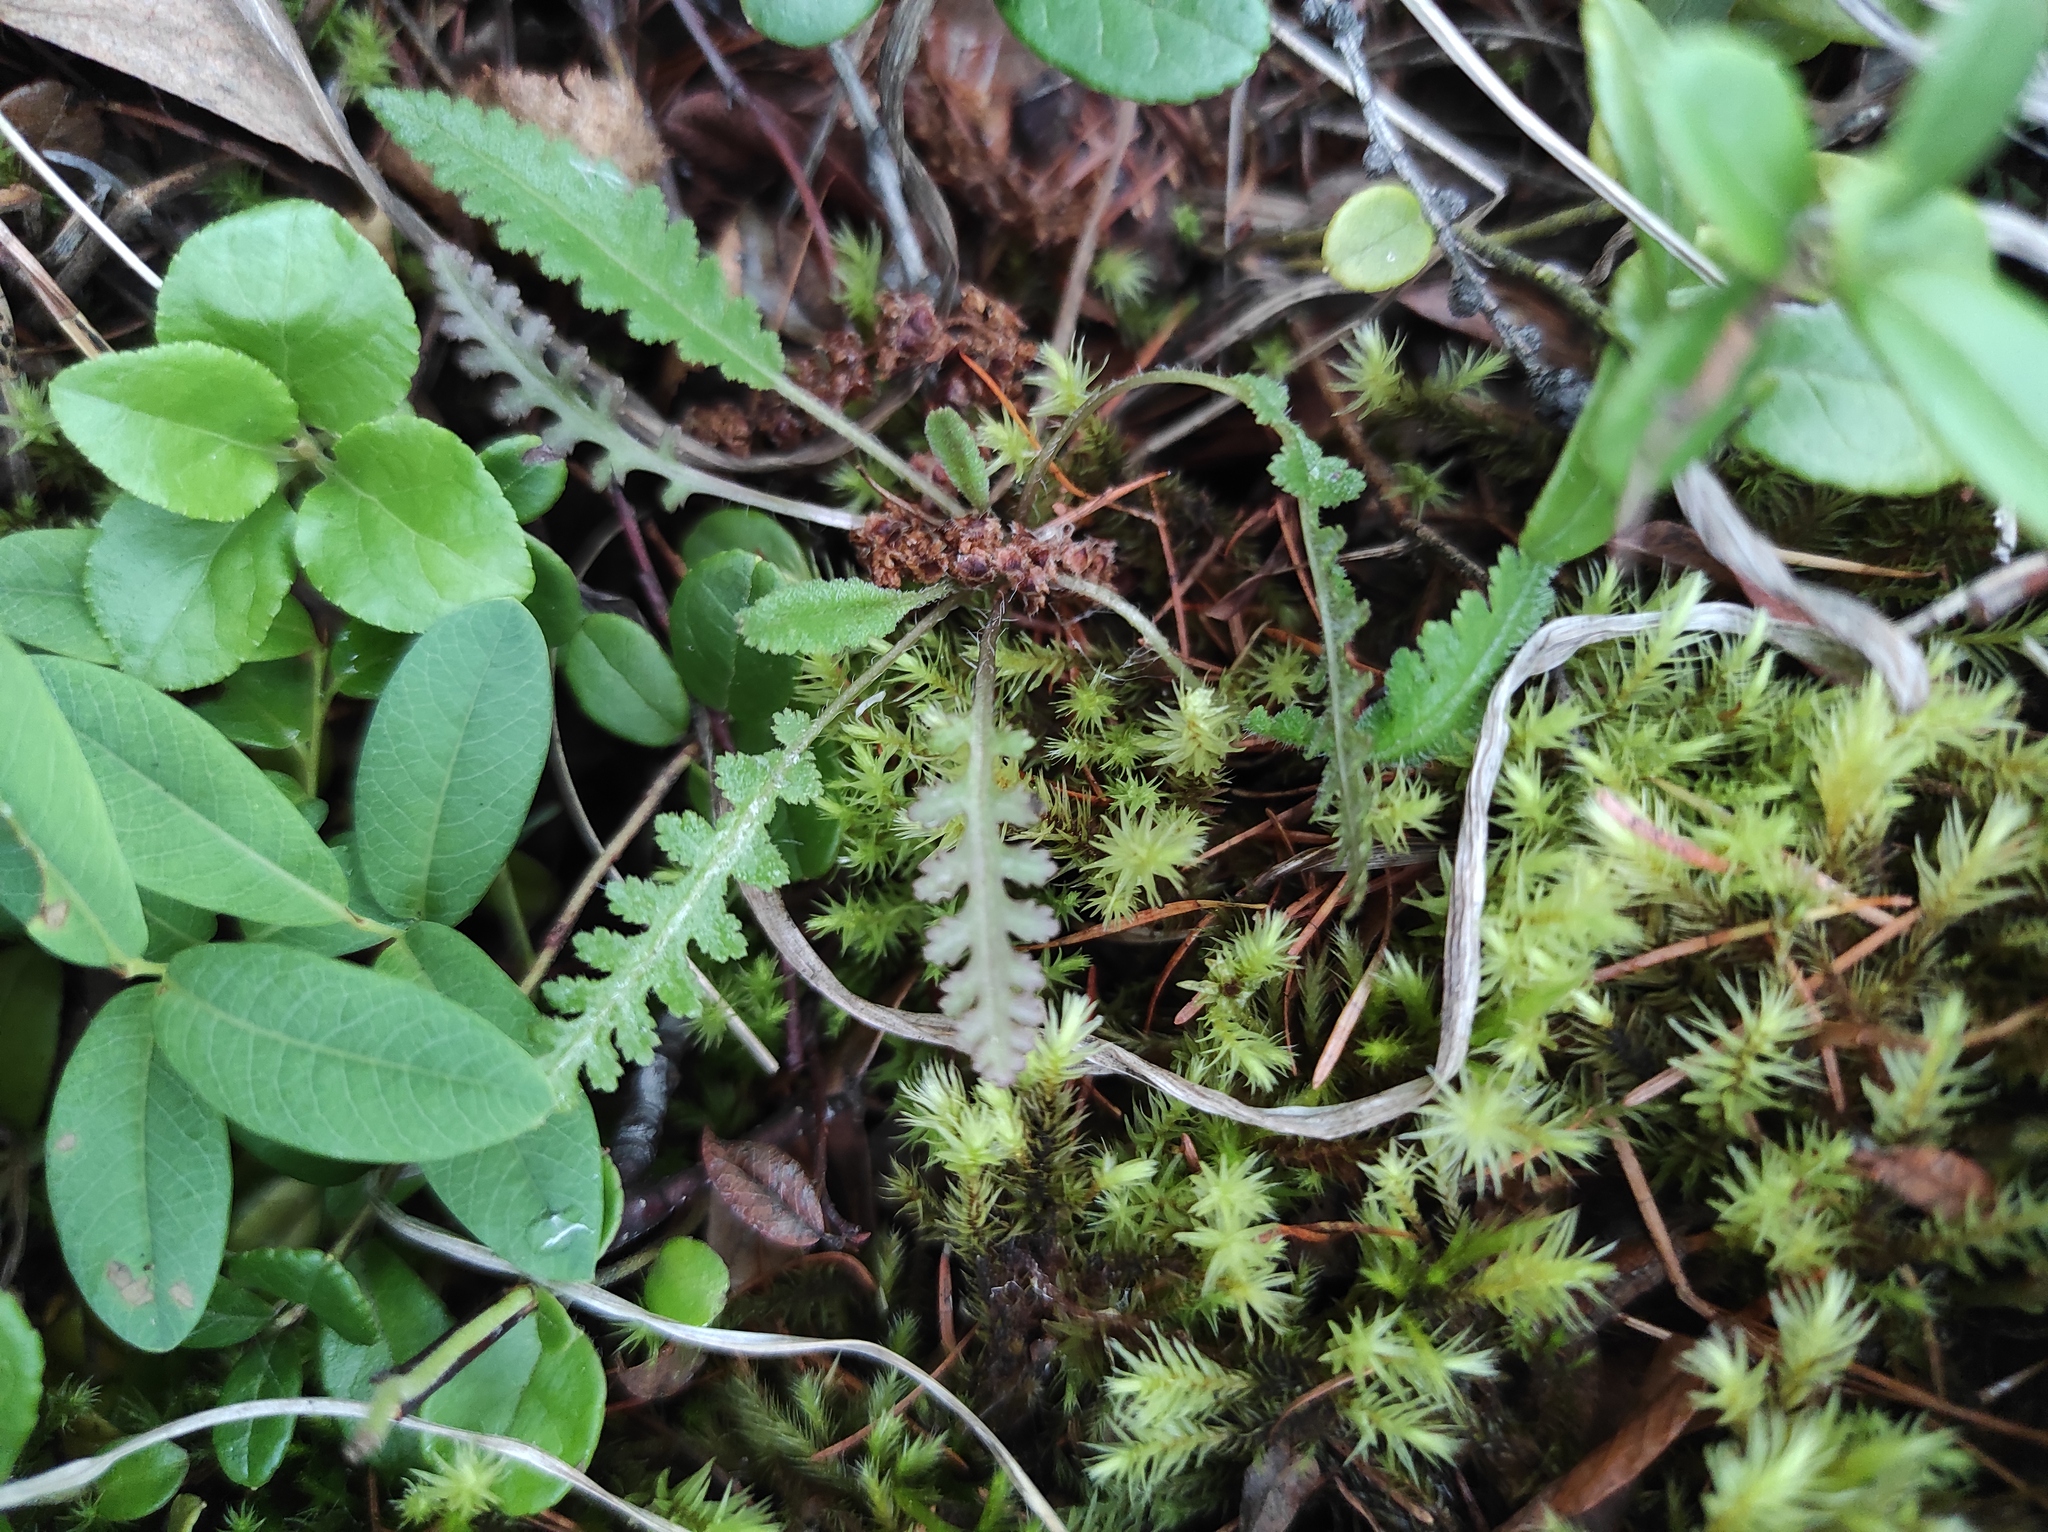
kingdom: Plantae
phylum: Tracheophyta
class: Magnoliopsida
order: Lamiales
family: Orobanchaceae
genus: Pedicularis
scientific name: Pedicularis labradorica
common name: Labrador lousewort
